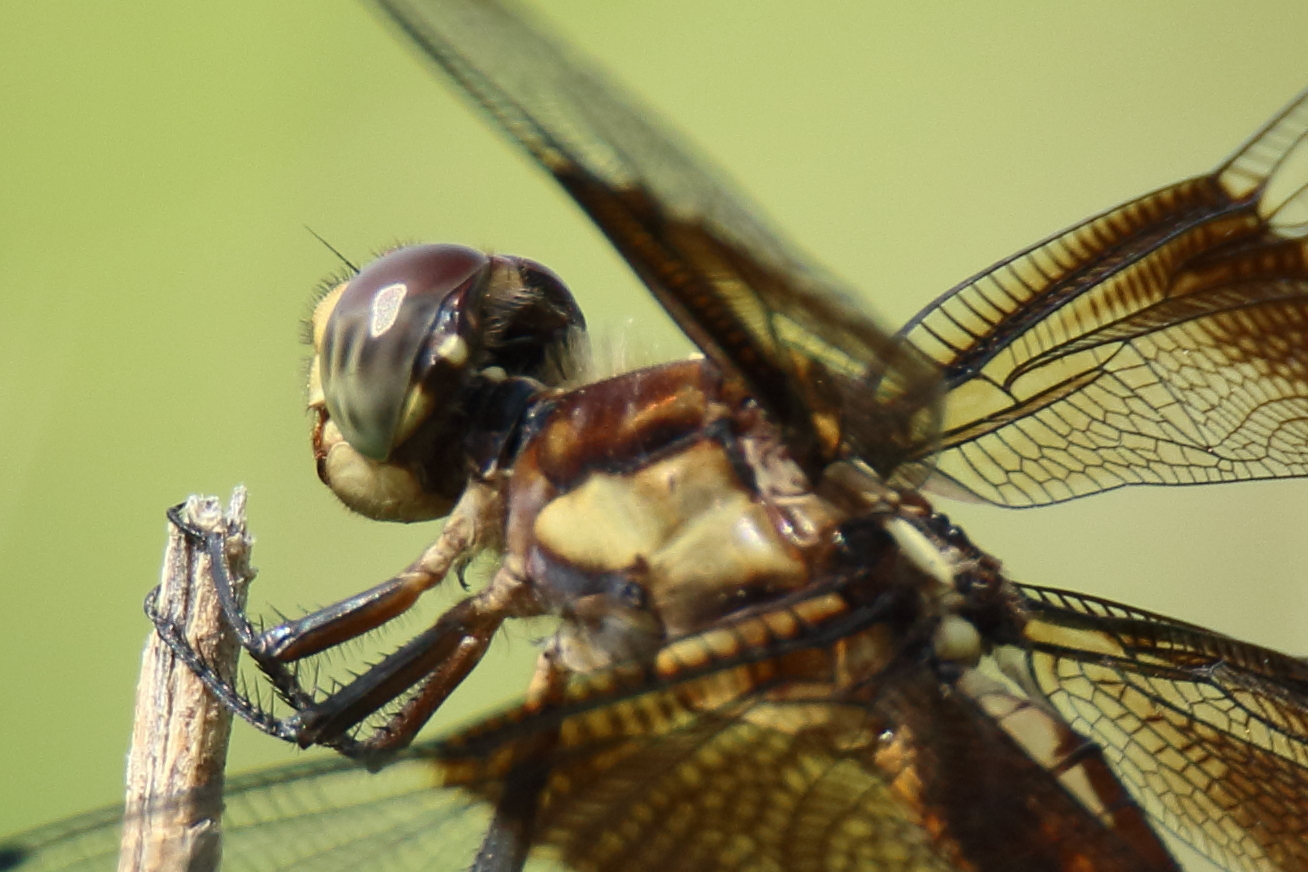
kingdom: Animalia
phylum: Arthropoda
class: Insecta
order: Odonata
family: Libellulidae
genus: Libellula
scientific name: Libellula luctuosa
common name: Widow skimmer
